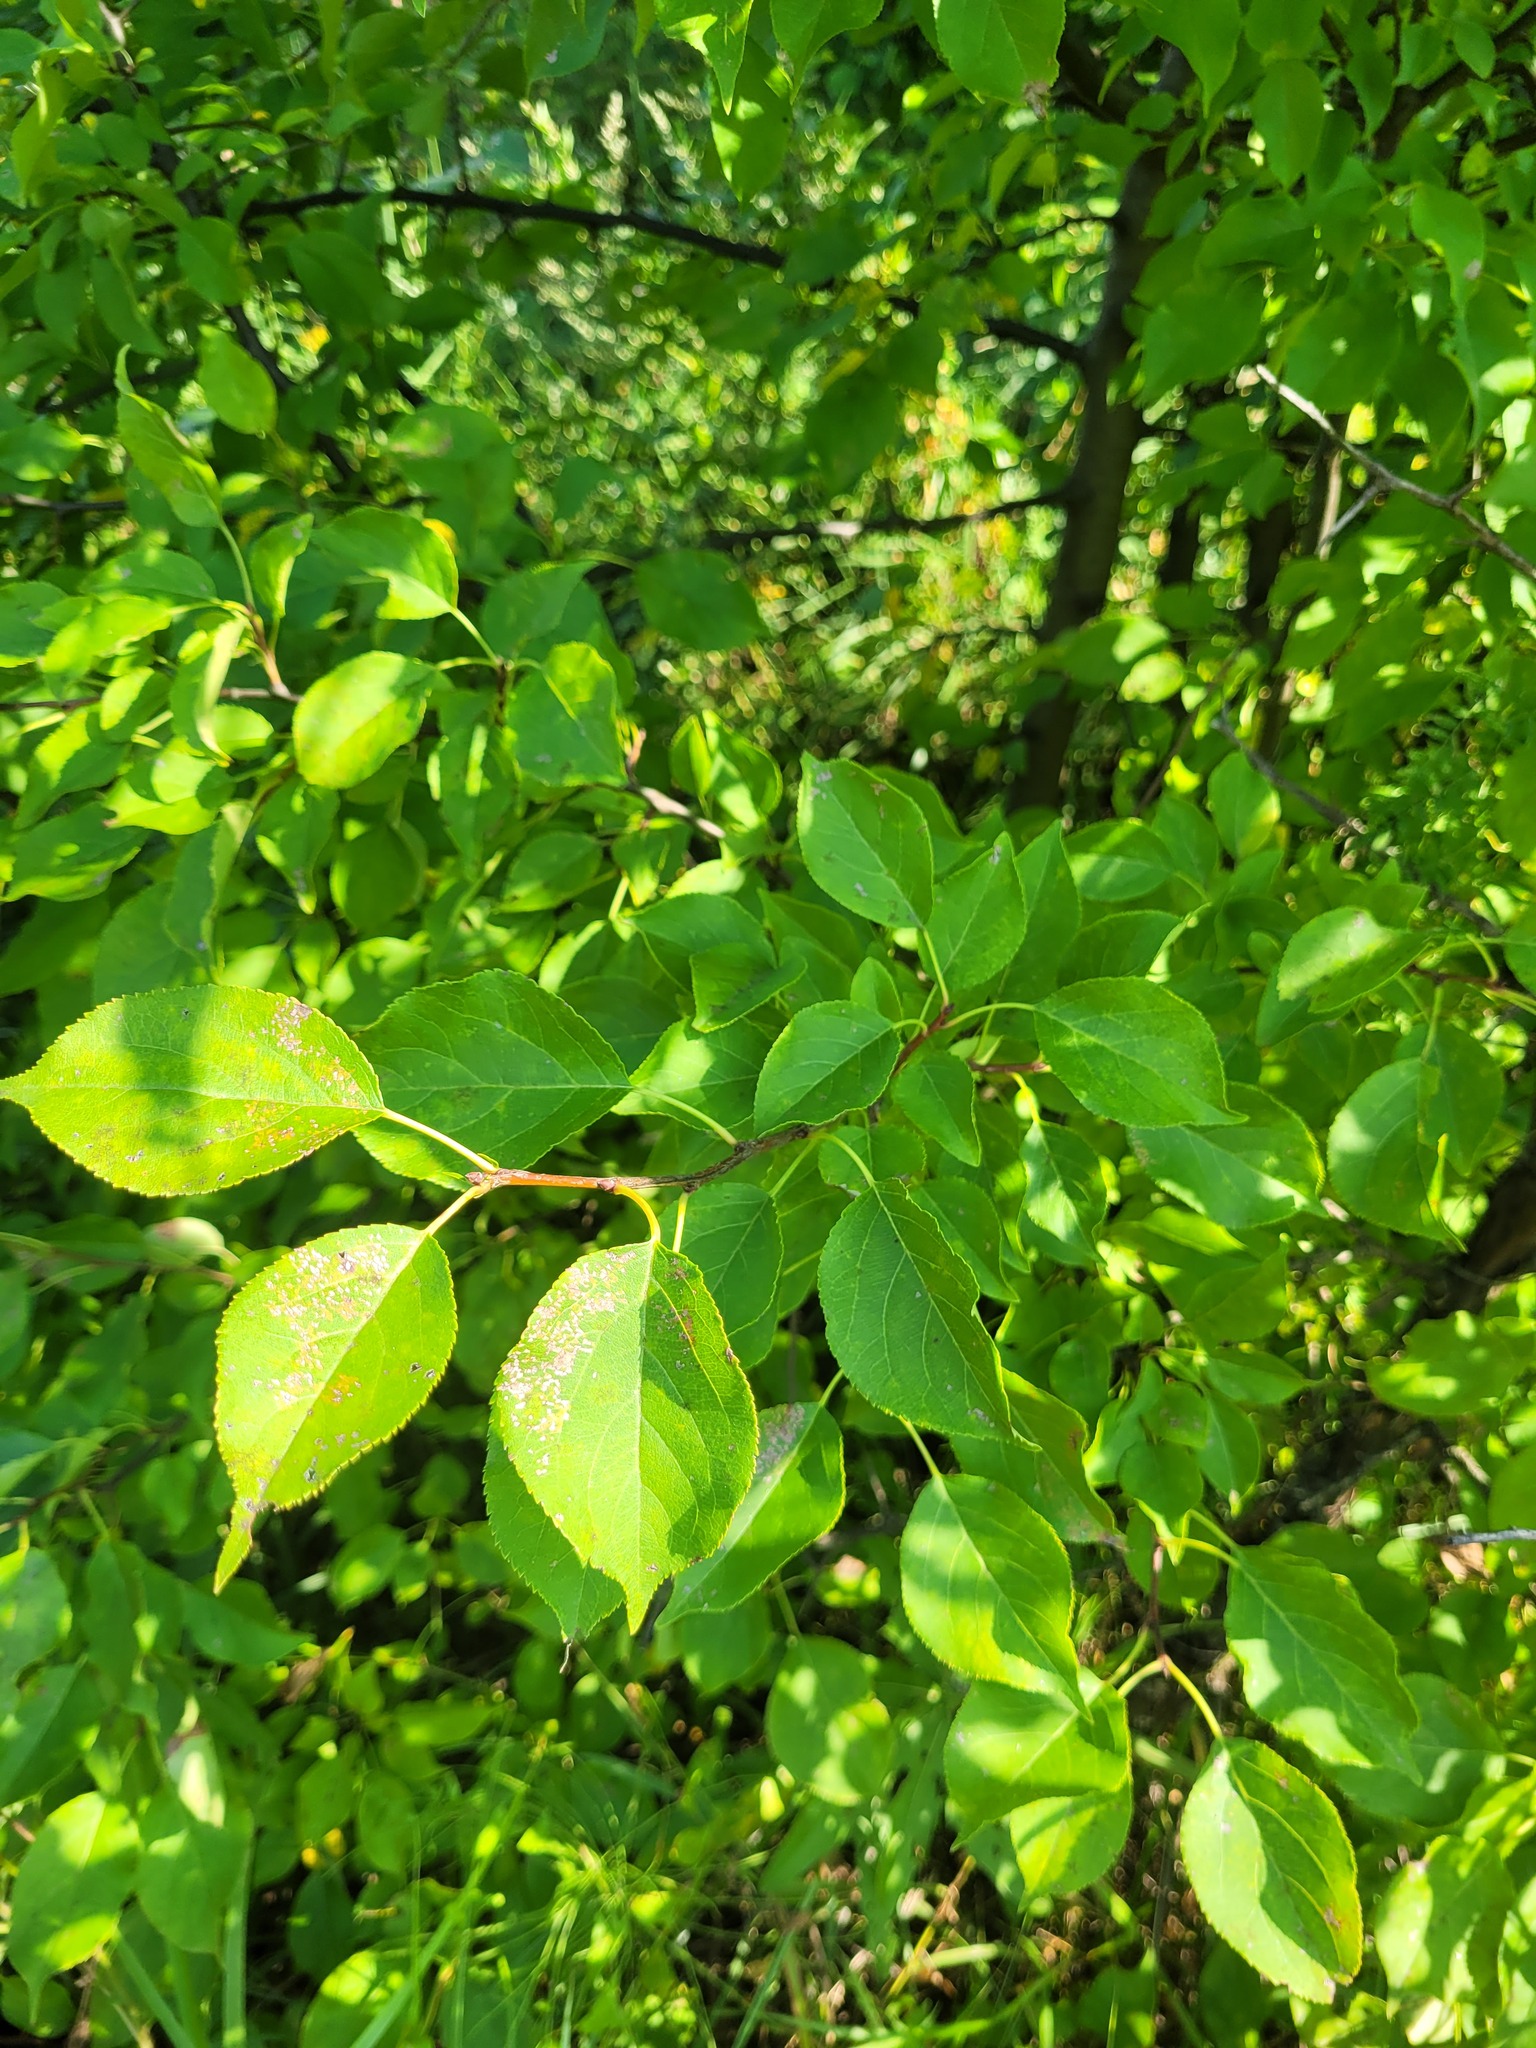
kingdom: Plantae
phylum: Tracheophyta
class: Magnoliopsida
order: Rosales
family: Rosaceae
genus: Malus
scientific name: Malus baccata
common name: Siberian crab
